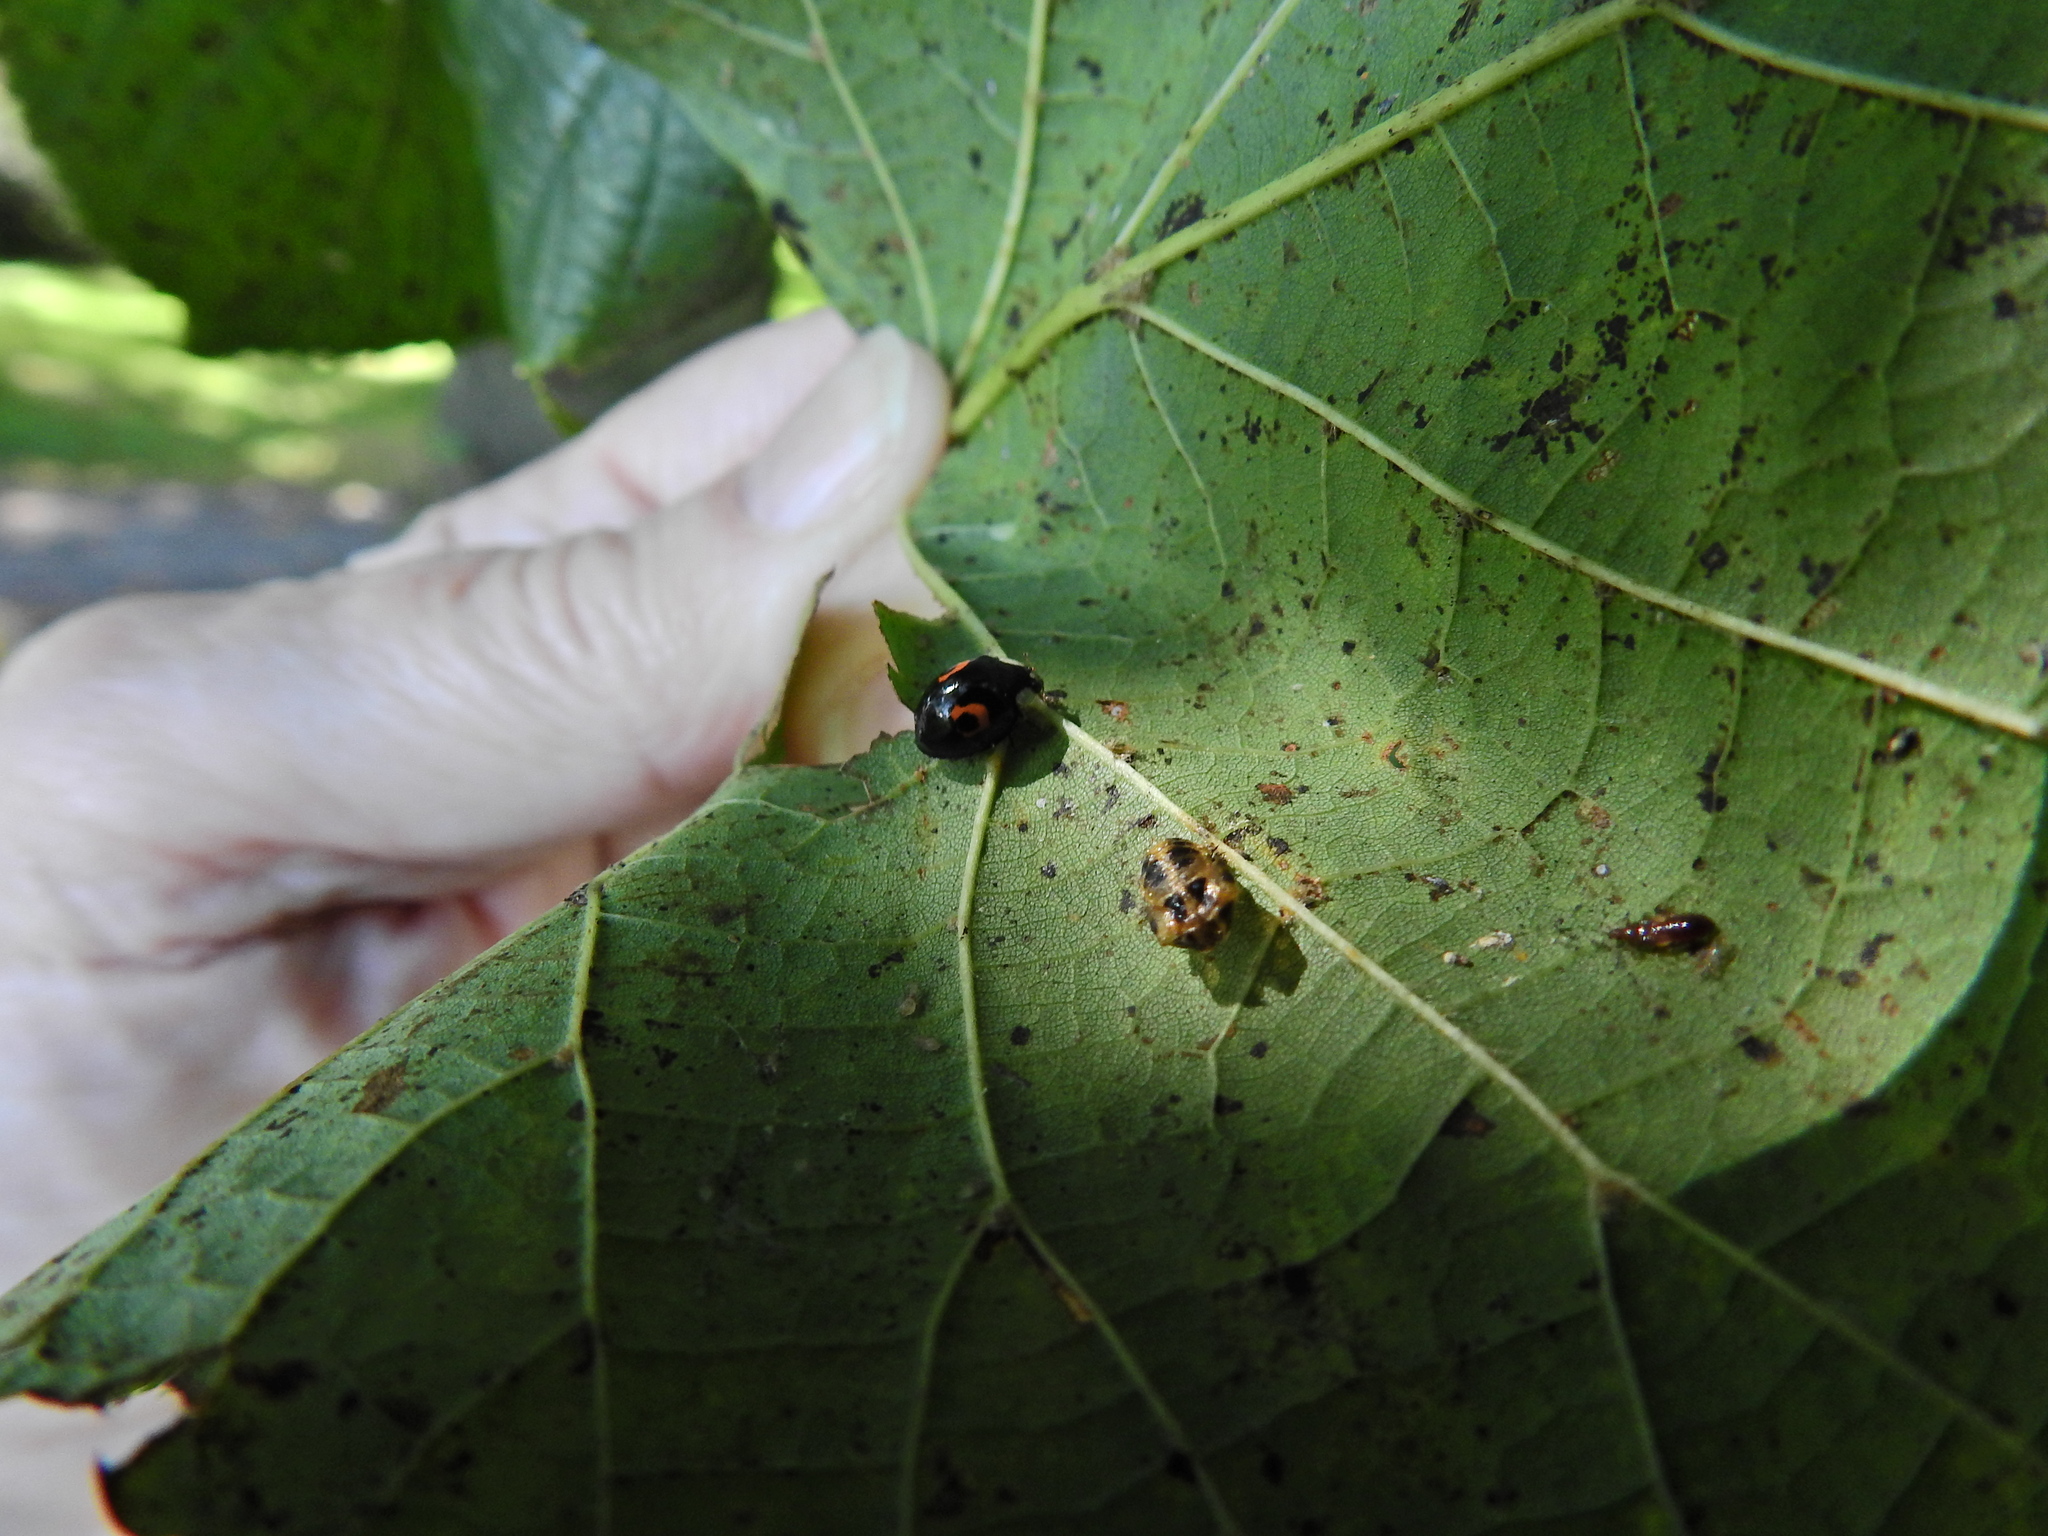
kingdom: Animalia
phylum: Arthropoda
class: Insecta
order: Coleoptera
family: Coccinellidae
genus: Harmonia
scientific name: Harmonia axyridis
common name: Harlequin ladybird
